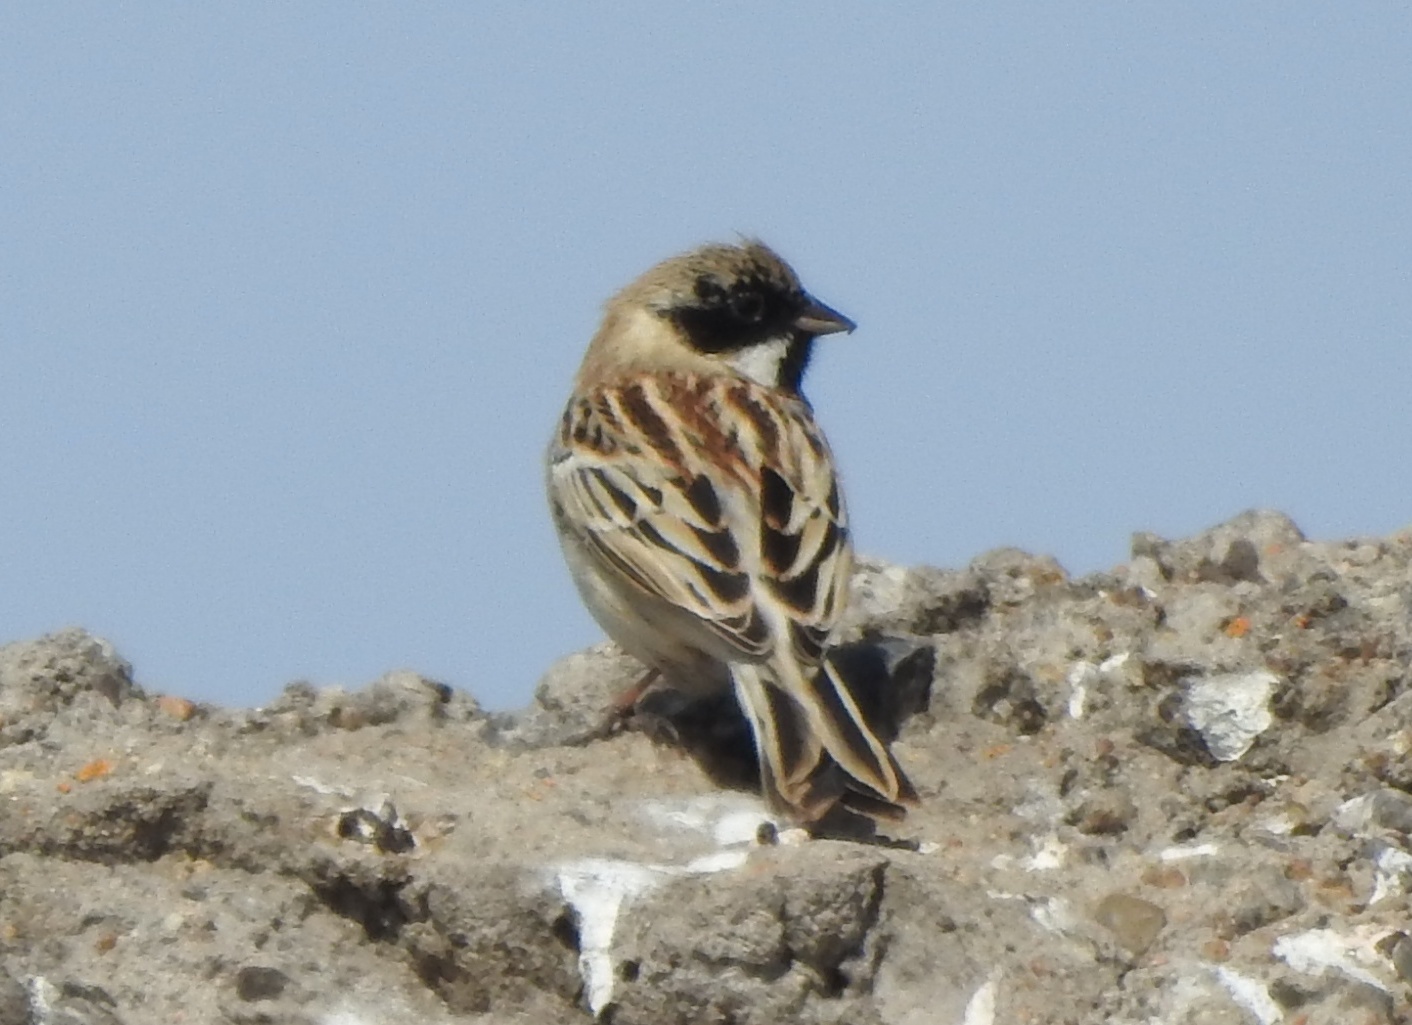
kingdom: Animalia
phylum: Chordata
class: Aves
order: Passeriformes
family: Emberizidae
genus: Emberiza
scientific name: Emberiza pallasi
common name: Pallas's reed bunting
